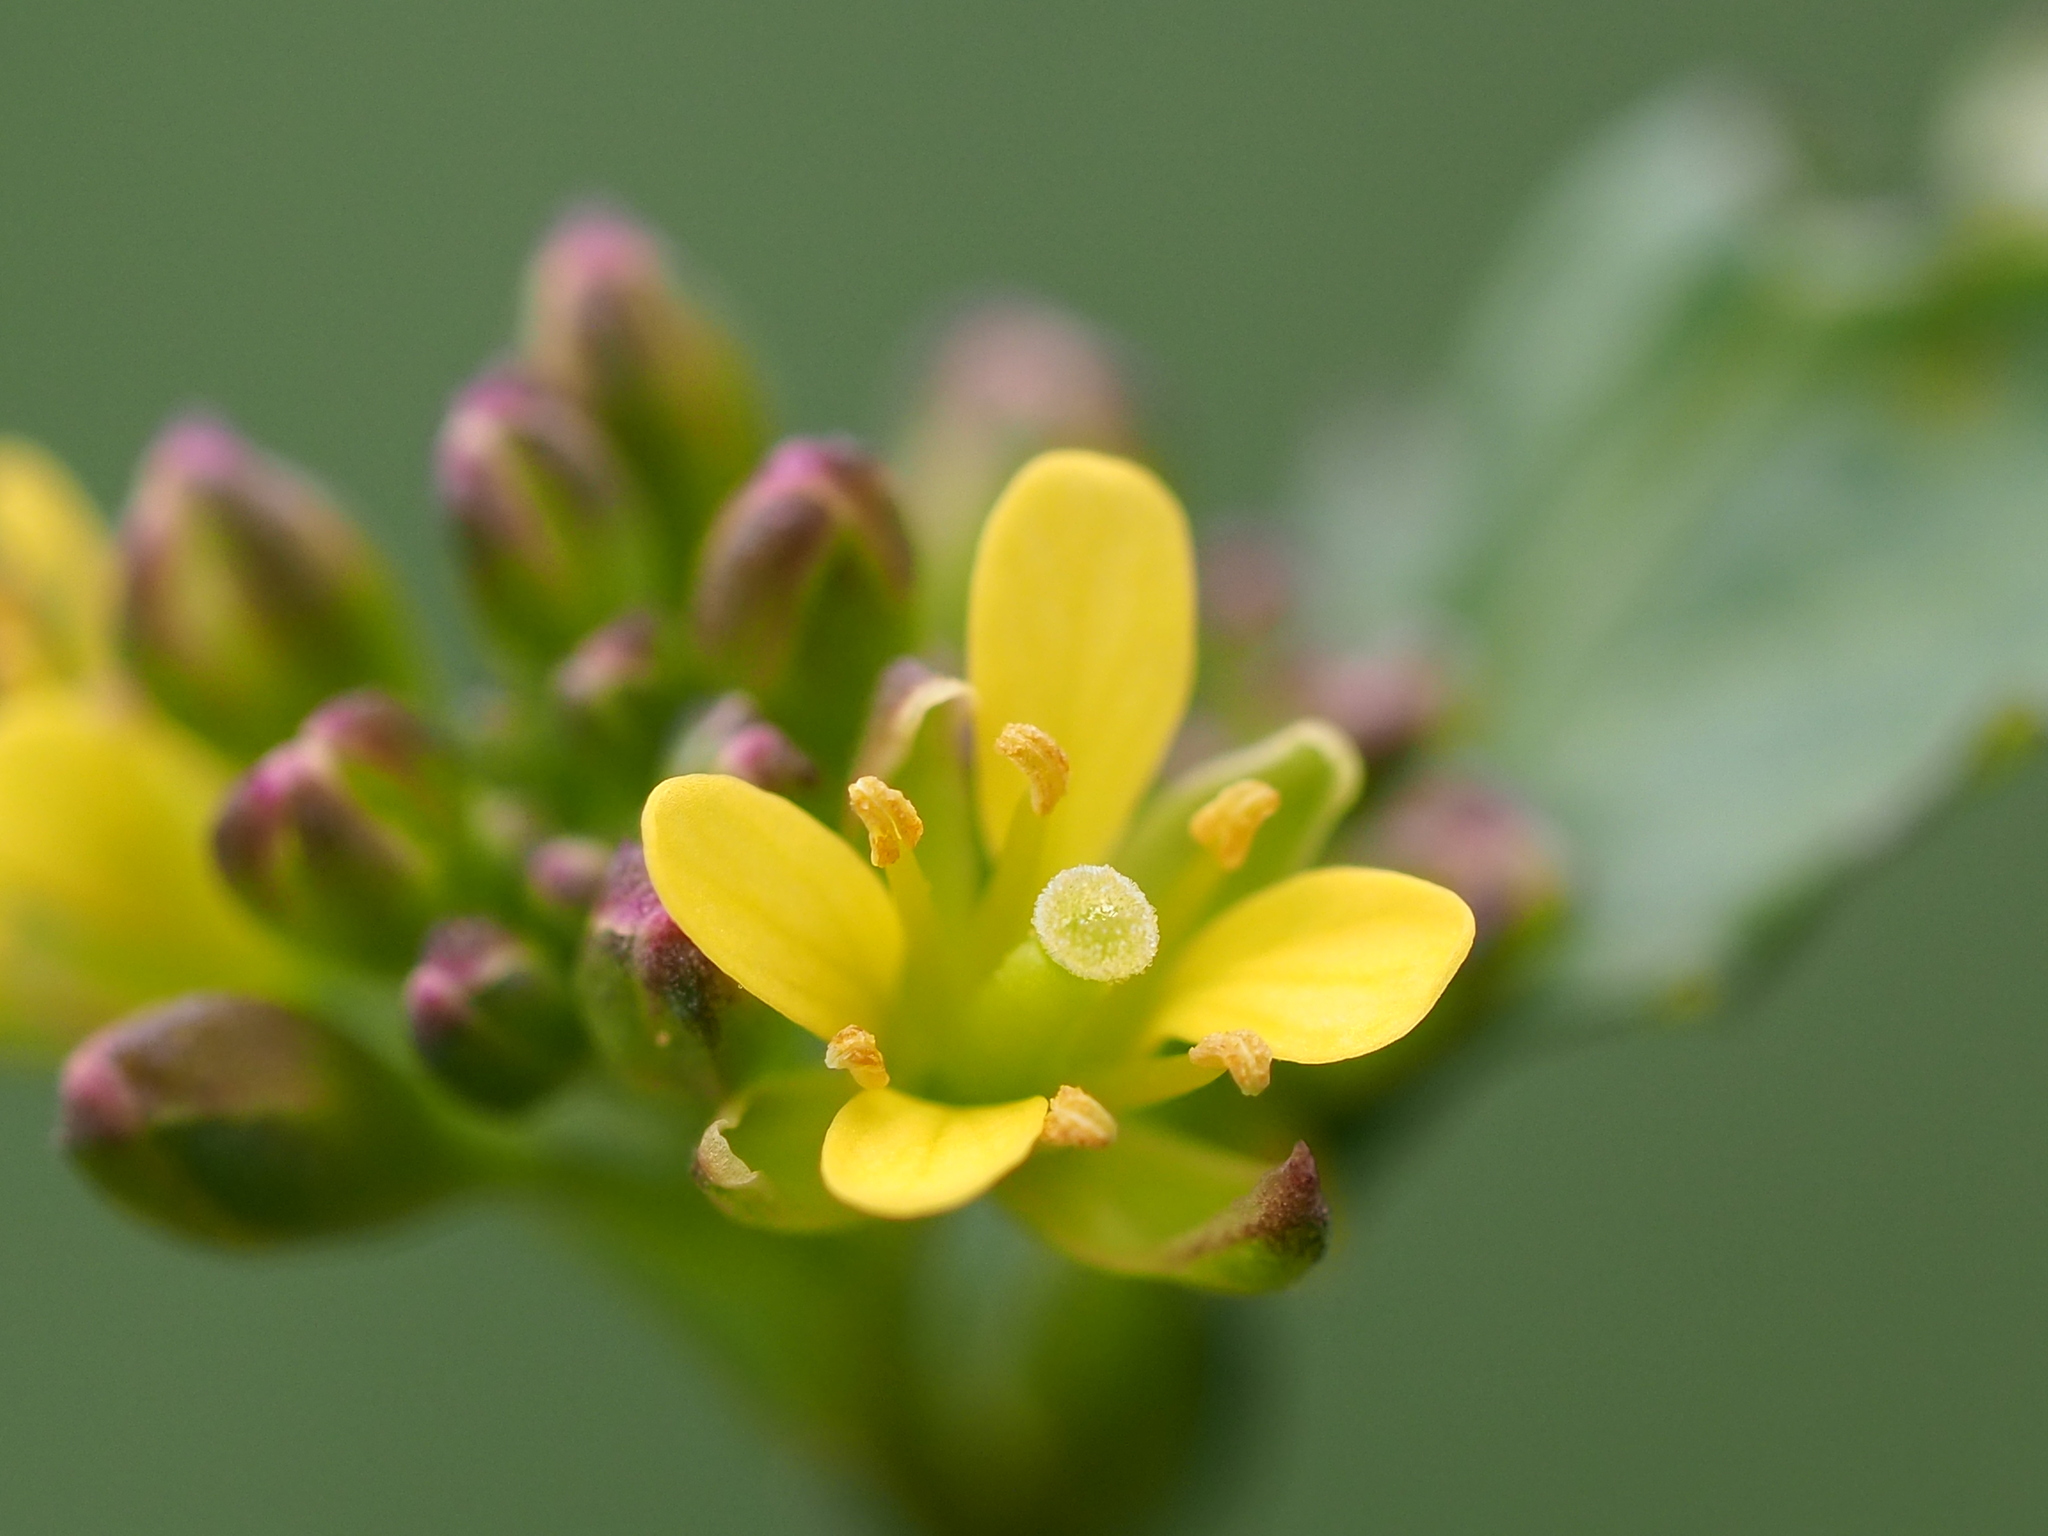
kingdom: Plantae
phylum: Tracheophyta
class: Magnoliopsida
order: Brassicales
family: Brassicaceae
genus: Rorippa
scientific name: Rorippa indica
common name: Variableleaf yellowcress
